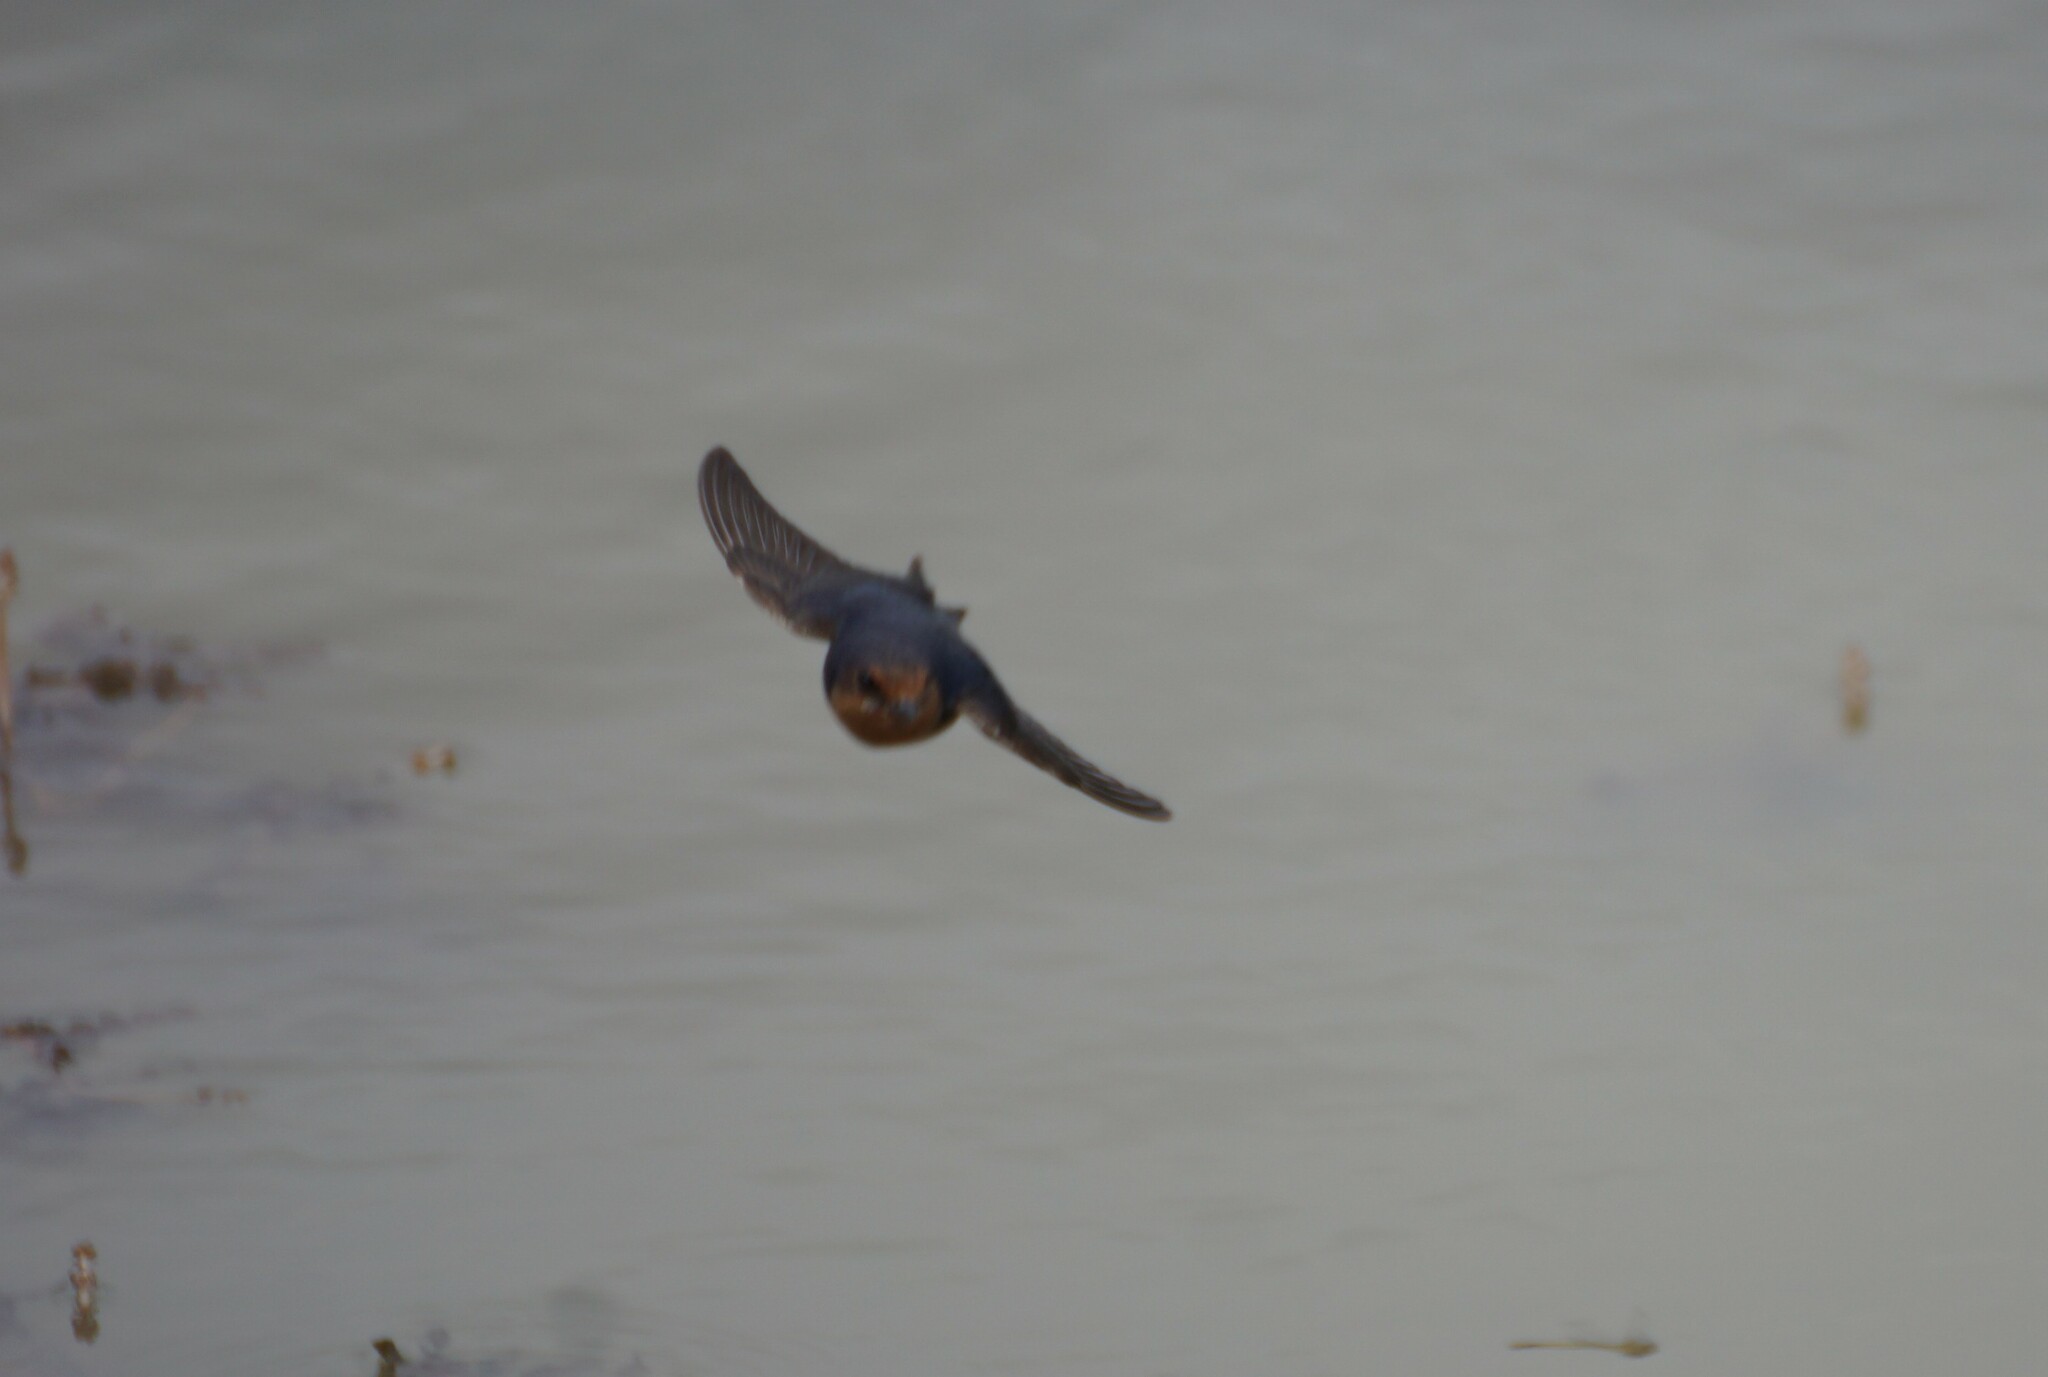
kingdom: Animalia
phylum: Chordata
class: Aves
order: Passeriformes
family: Hirundinidae
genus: Hirundo
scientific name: Hirundo neoxena
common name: Welcome swallow
